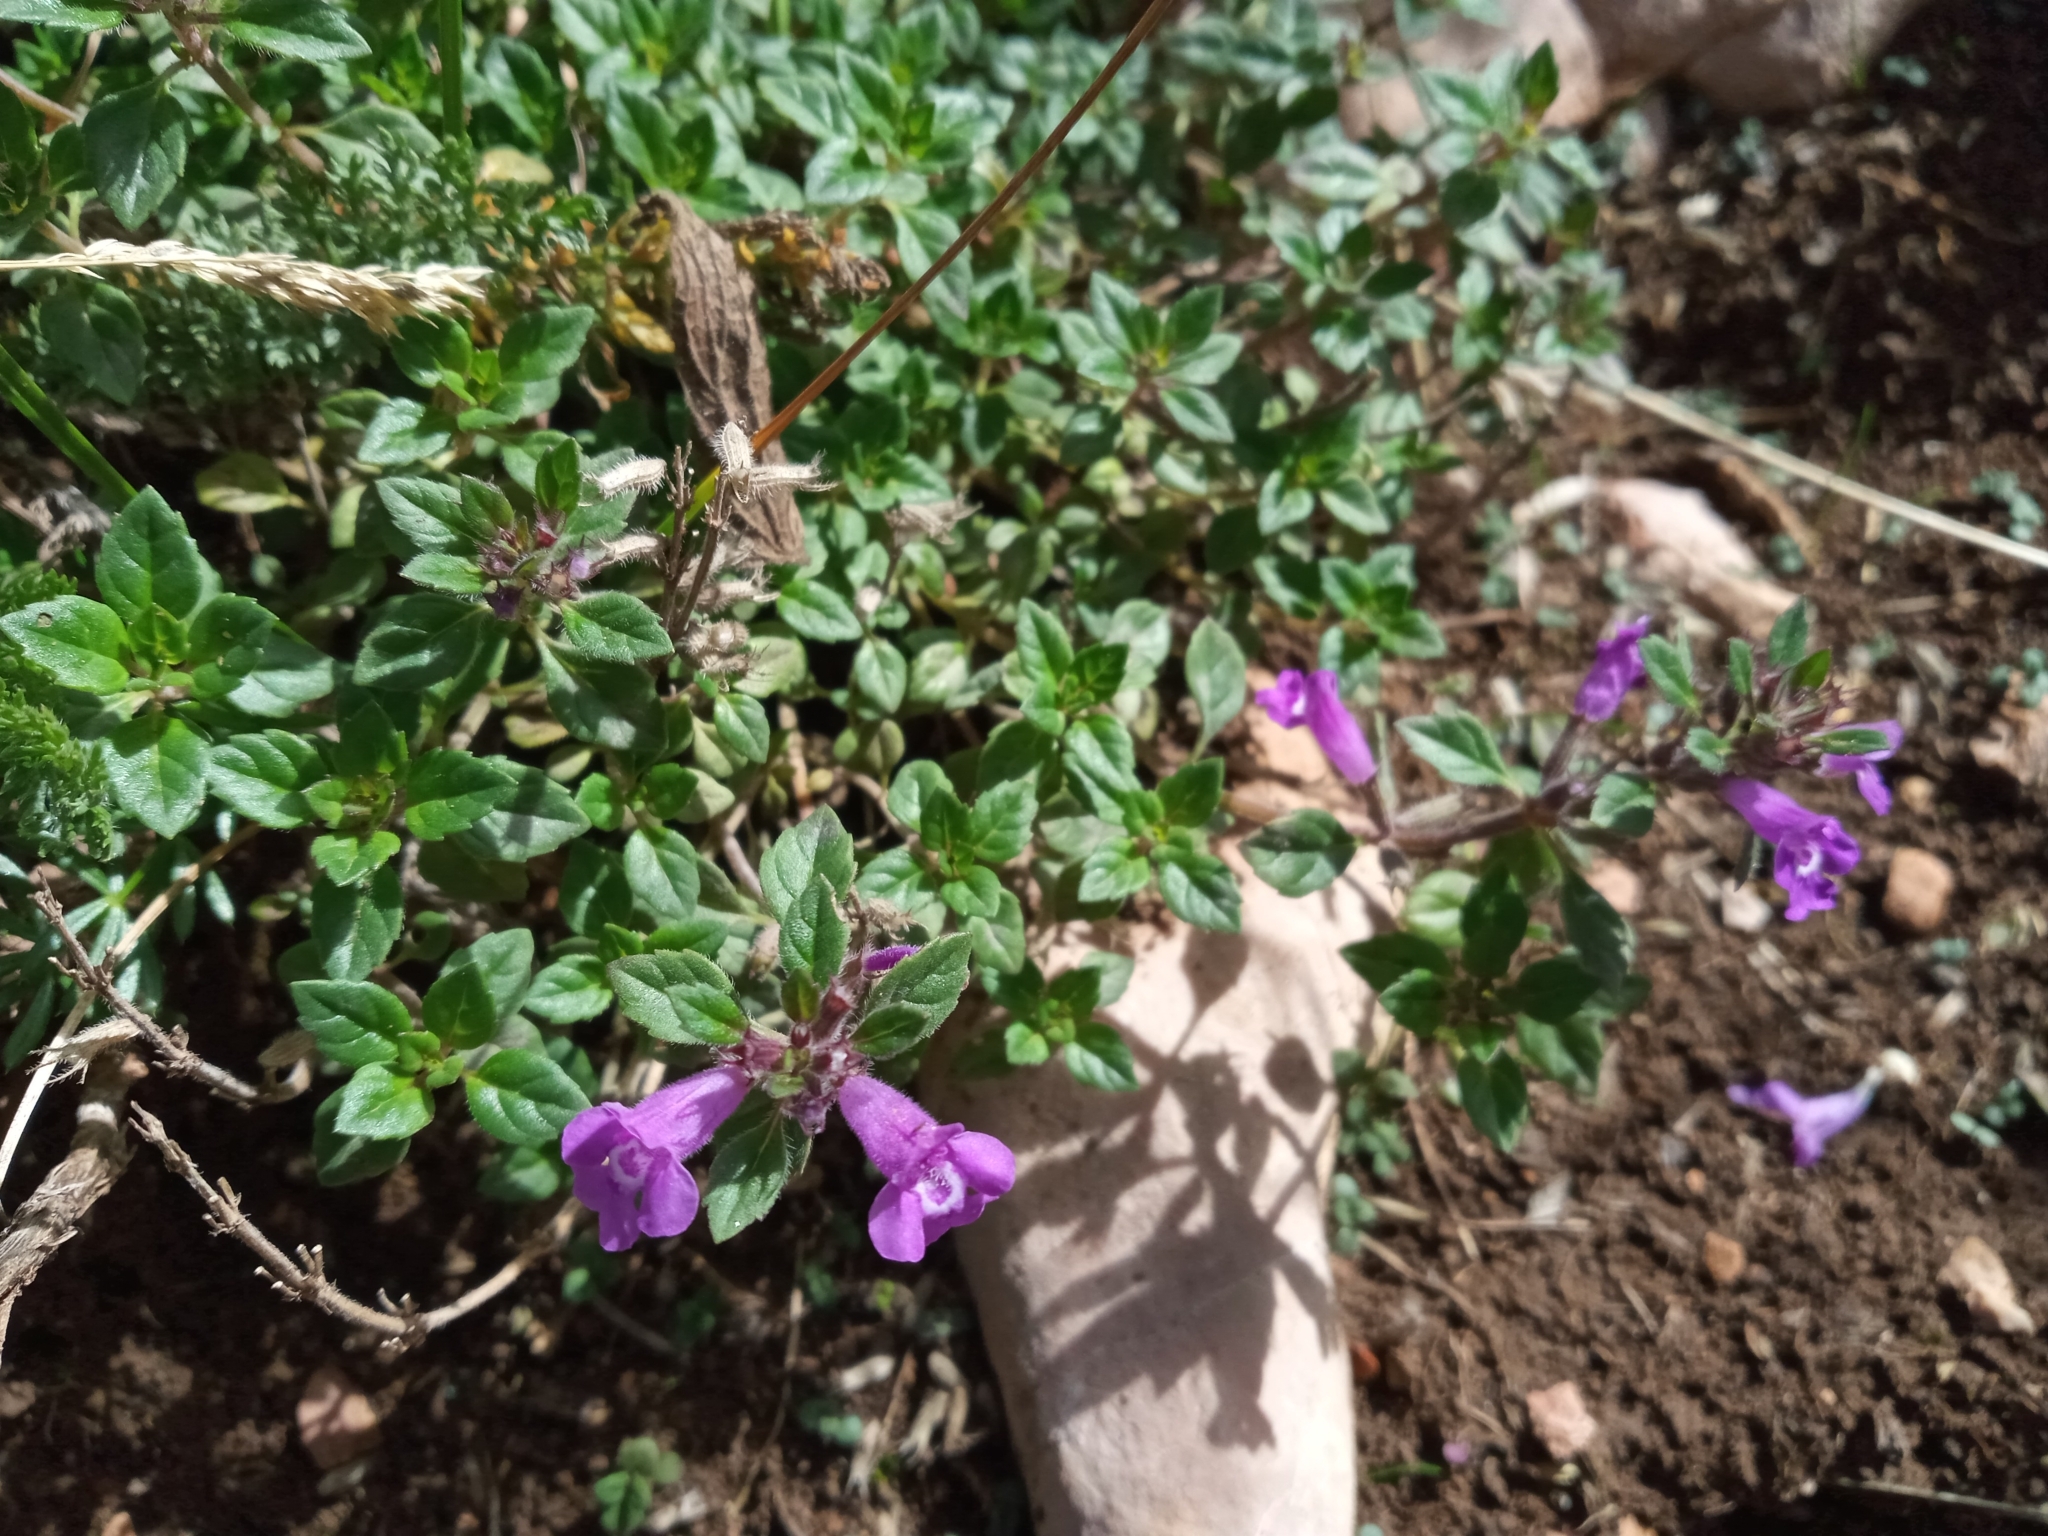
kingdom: Plantae
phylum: Tracheophyta
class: Magnoliopsida
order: Lamiales
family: Lamiaceae
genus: Clinopodium
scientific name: Clinopodium alpinum
